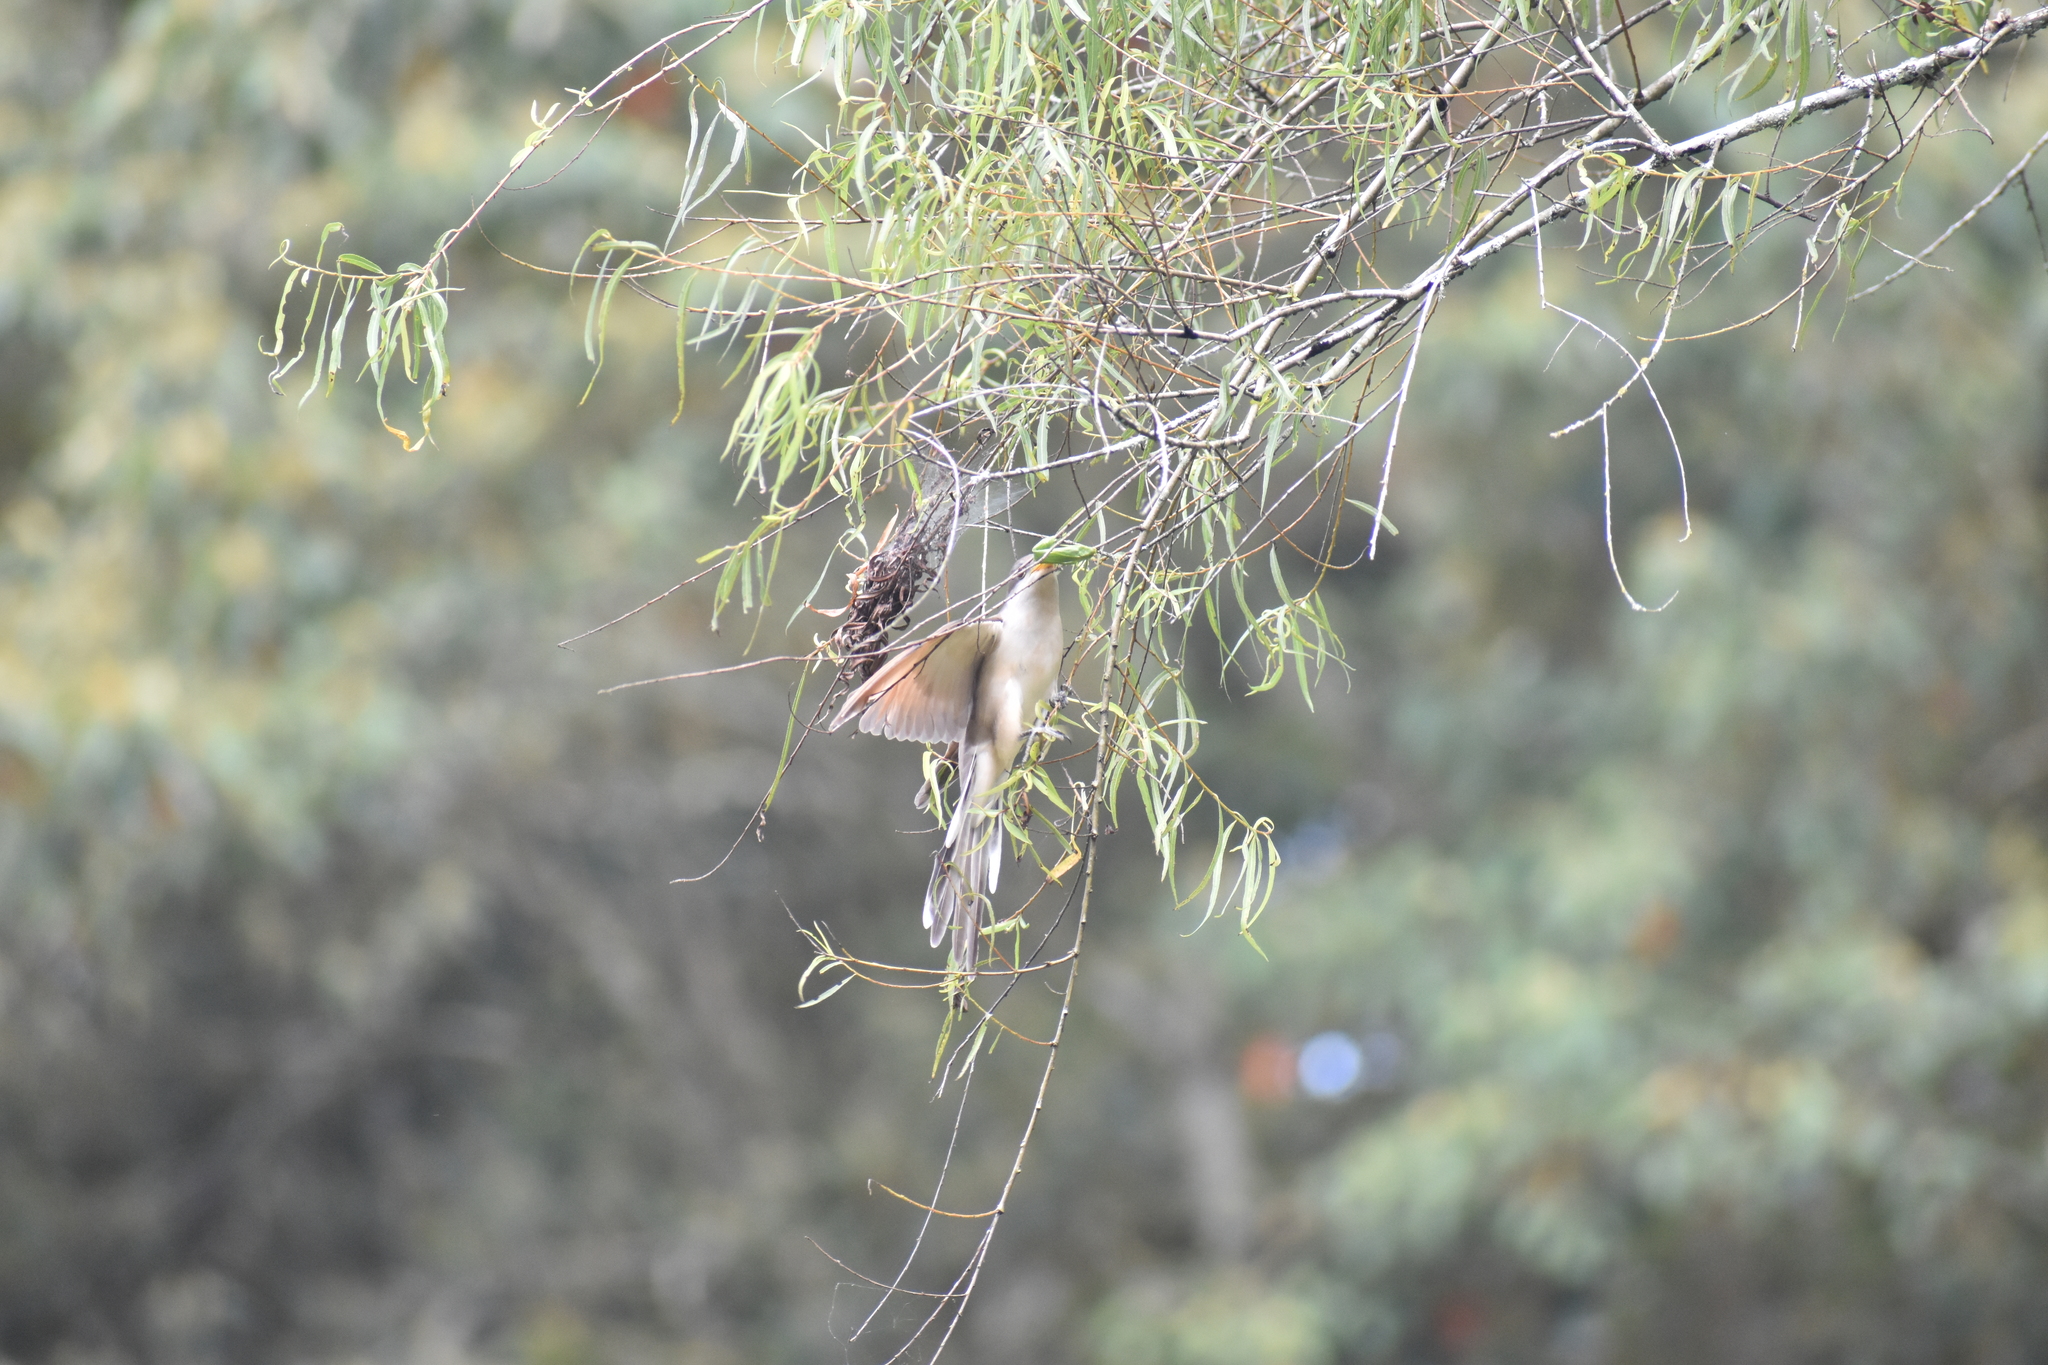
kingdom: Animalia
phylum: Chordata
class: Aves
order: Cuculiformes
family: Cuculidae
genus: Coccyzus
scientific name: Coccyzus americanus
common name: Yellow-billed cuckoo
